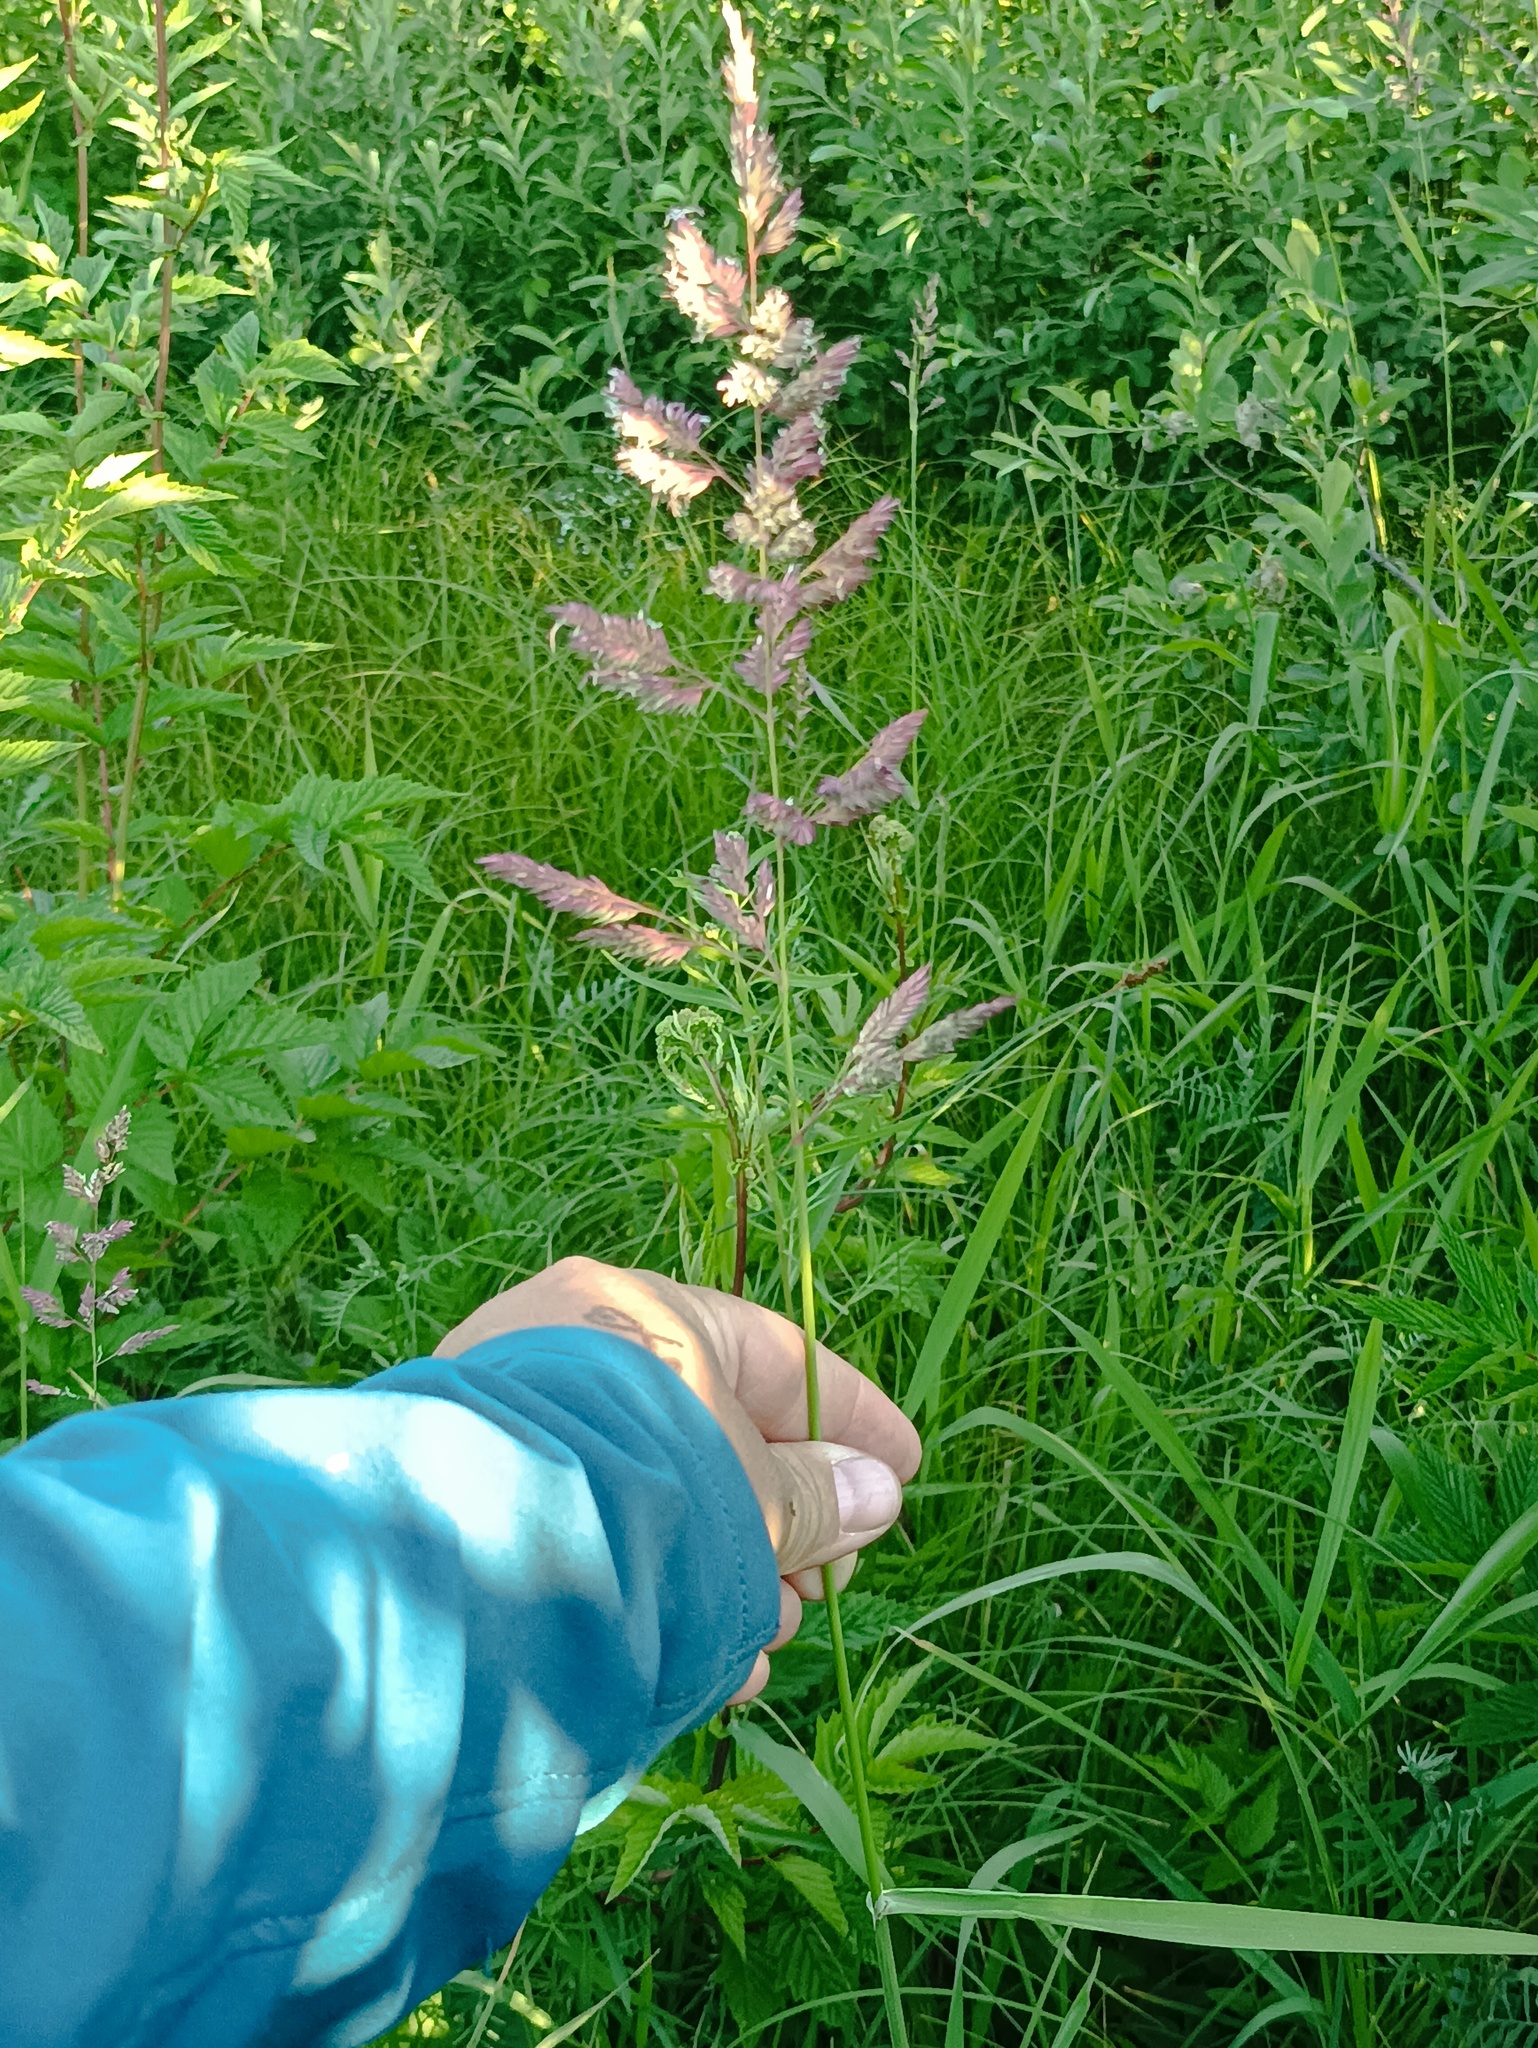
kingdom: Plantae
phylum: Tracheophyta
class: Liliopsida
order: Poales
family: Poaceae
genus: Phalaris
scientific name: Phalaris arundinacea
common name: Reed canary-grass
